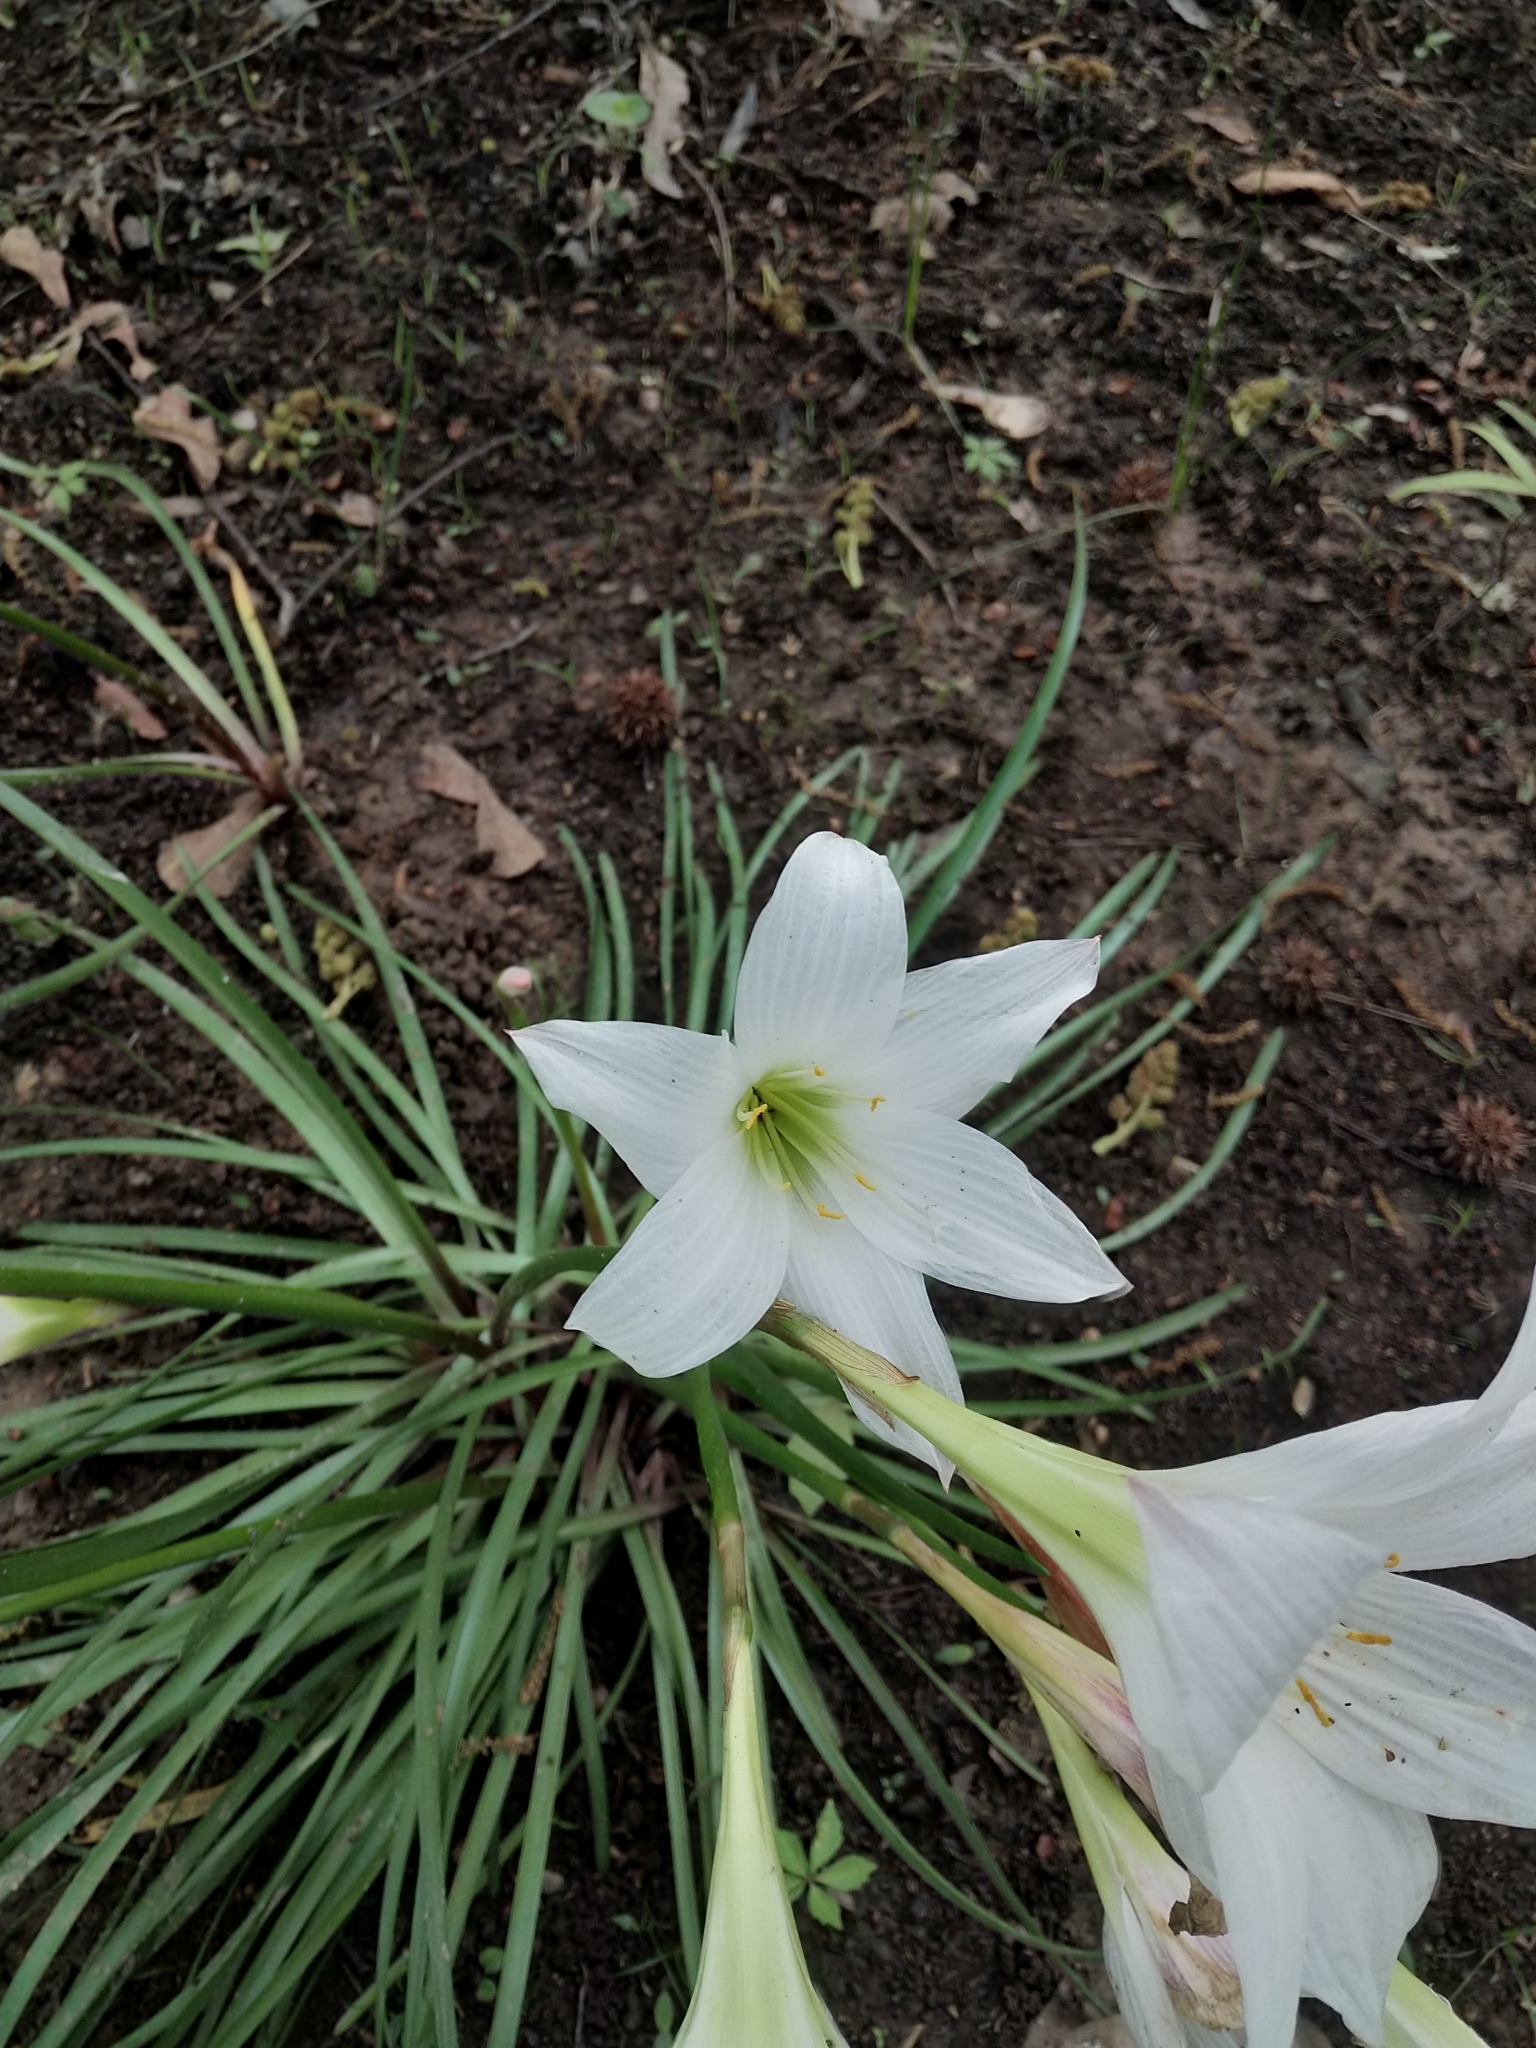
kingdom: Plantae
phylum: Tracheophyta
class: Liliopsida
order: Asparagales
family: Amaryllidaceae
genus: Zephyranthes
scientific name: Zephyranthes atamasco
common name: Atamasco lily
